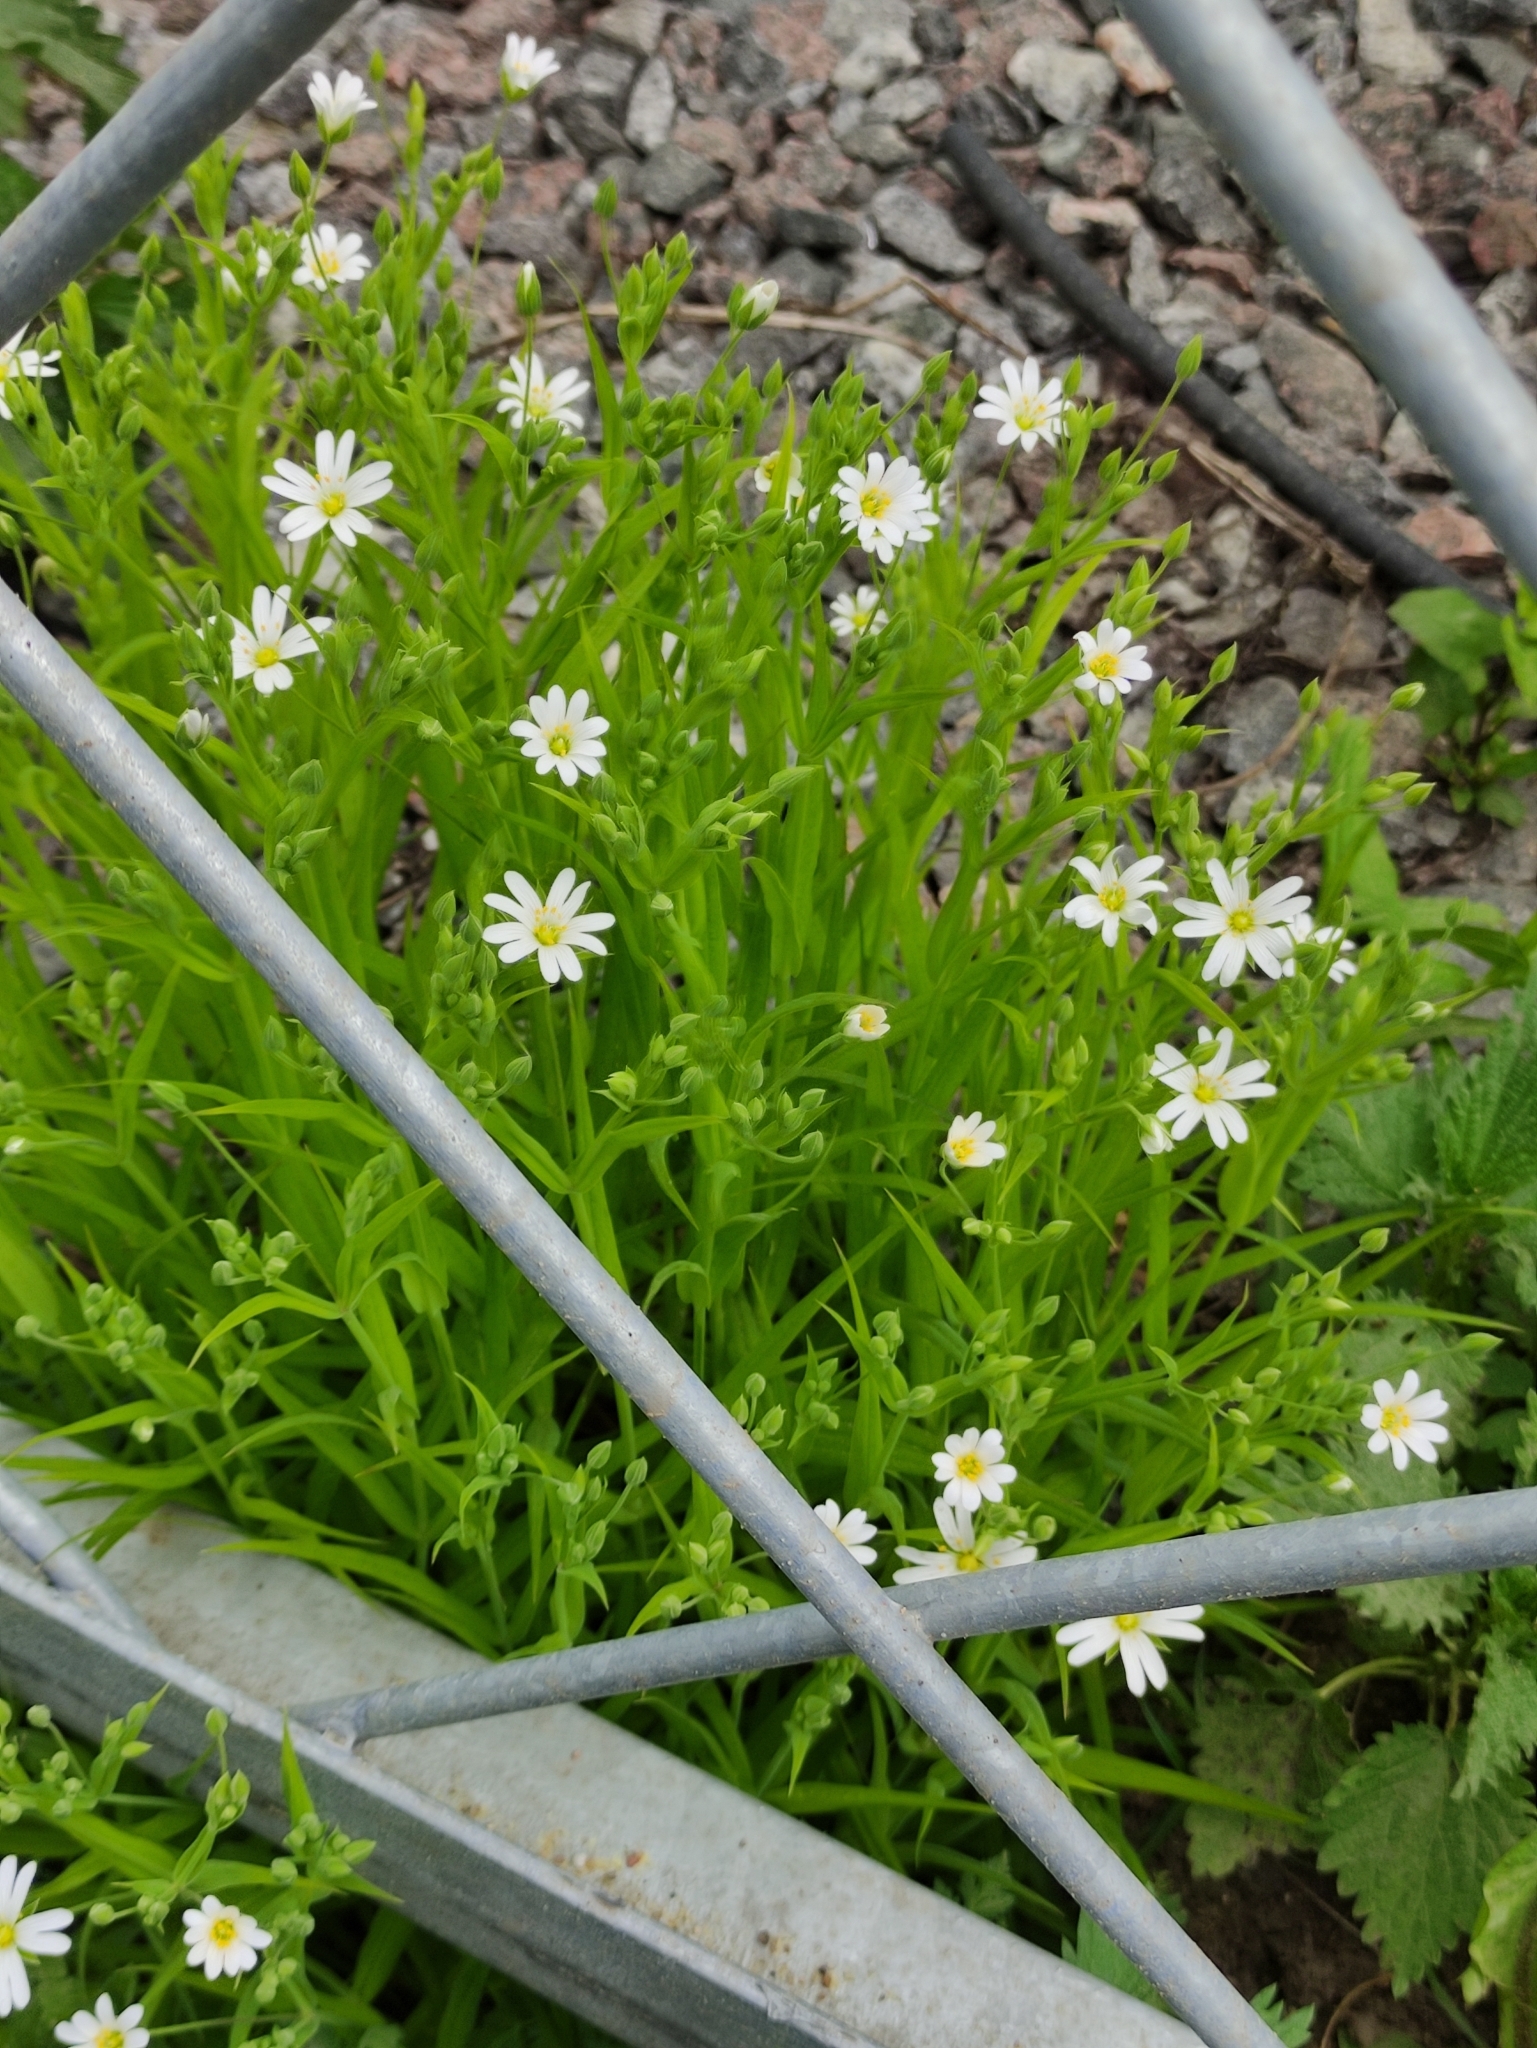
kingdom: Plantae
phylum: Tracheophyta
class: Magnoliopsida
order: Caryophyllales
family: Caryophyllaceae
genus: Rabelera
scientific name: Rabelera holostea
